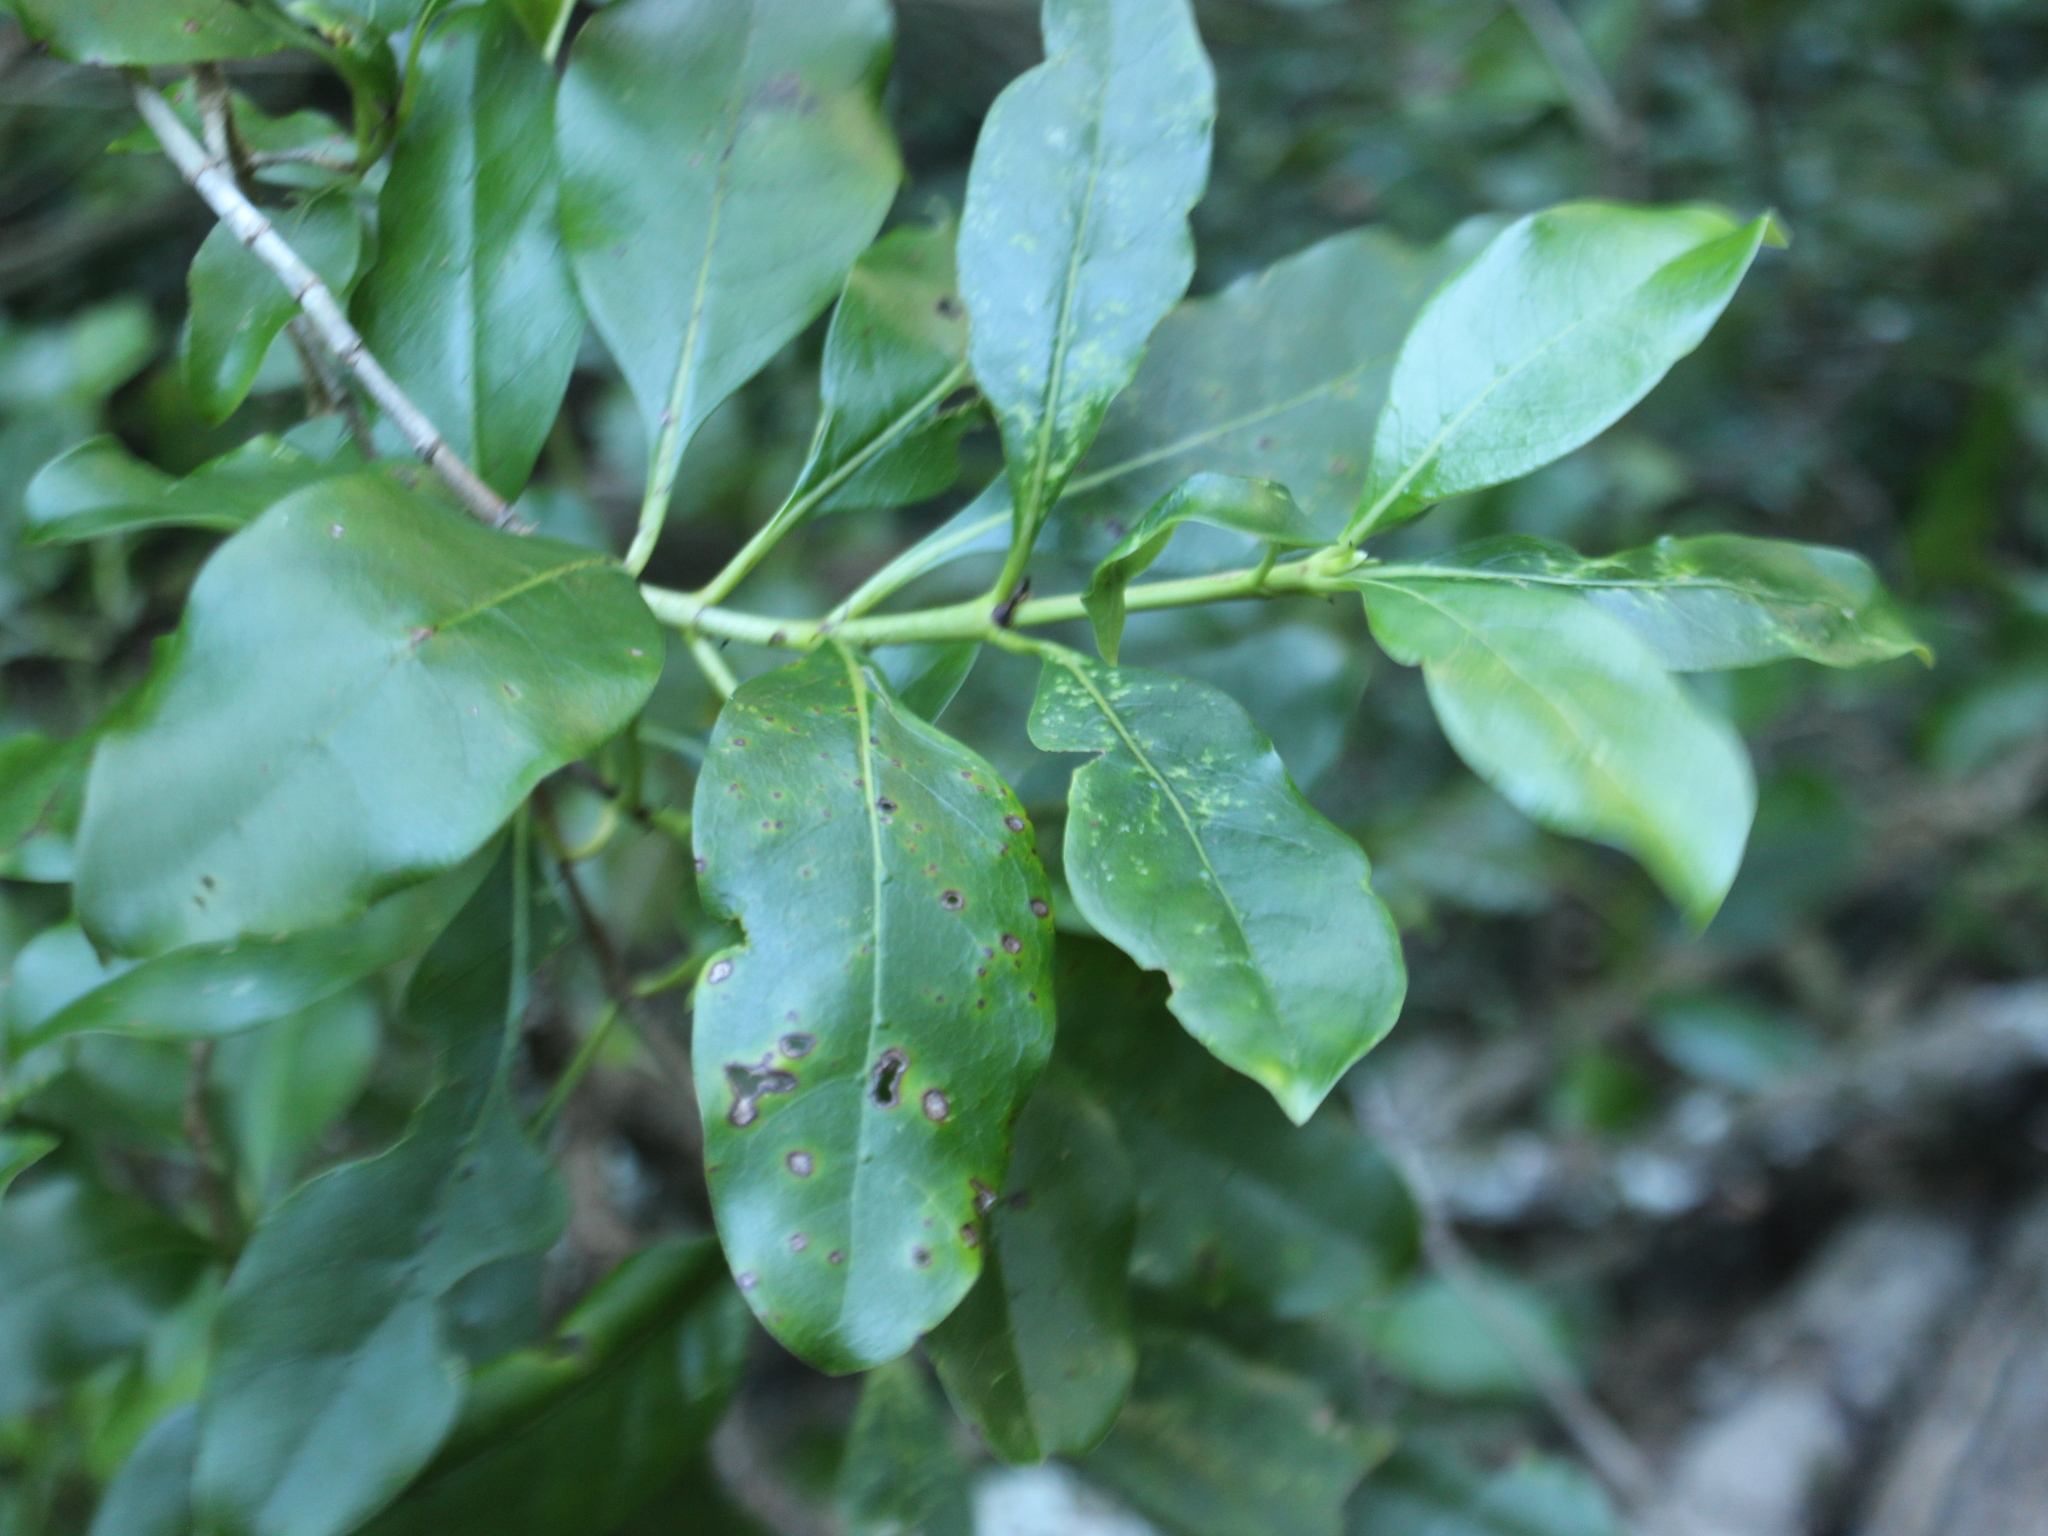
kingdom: Plantae
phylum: Tracheophyta
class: Magnoliopsida
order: Gentianales
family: Rubiaceae
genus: Coprosma
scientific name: Coprosma macrocarpa
